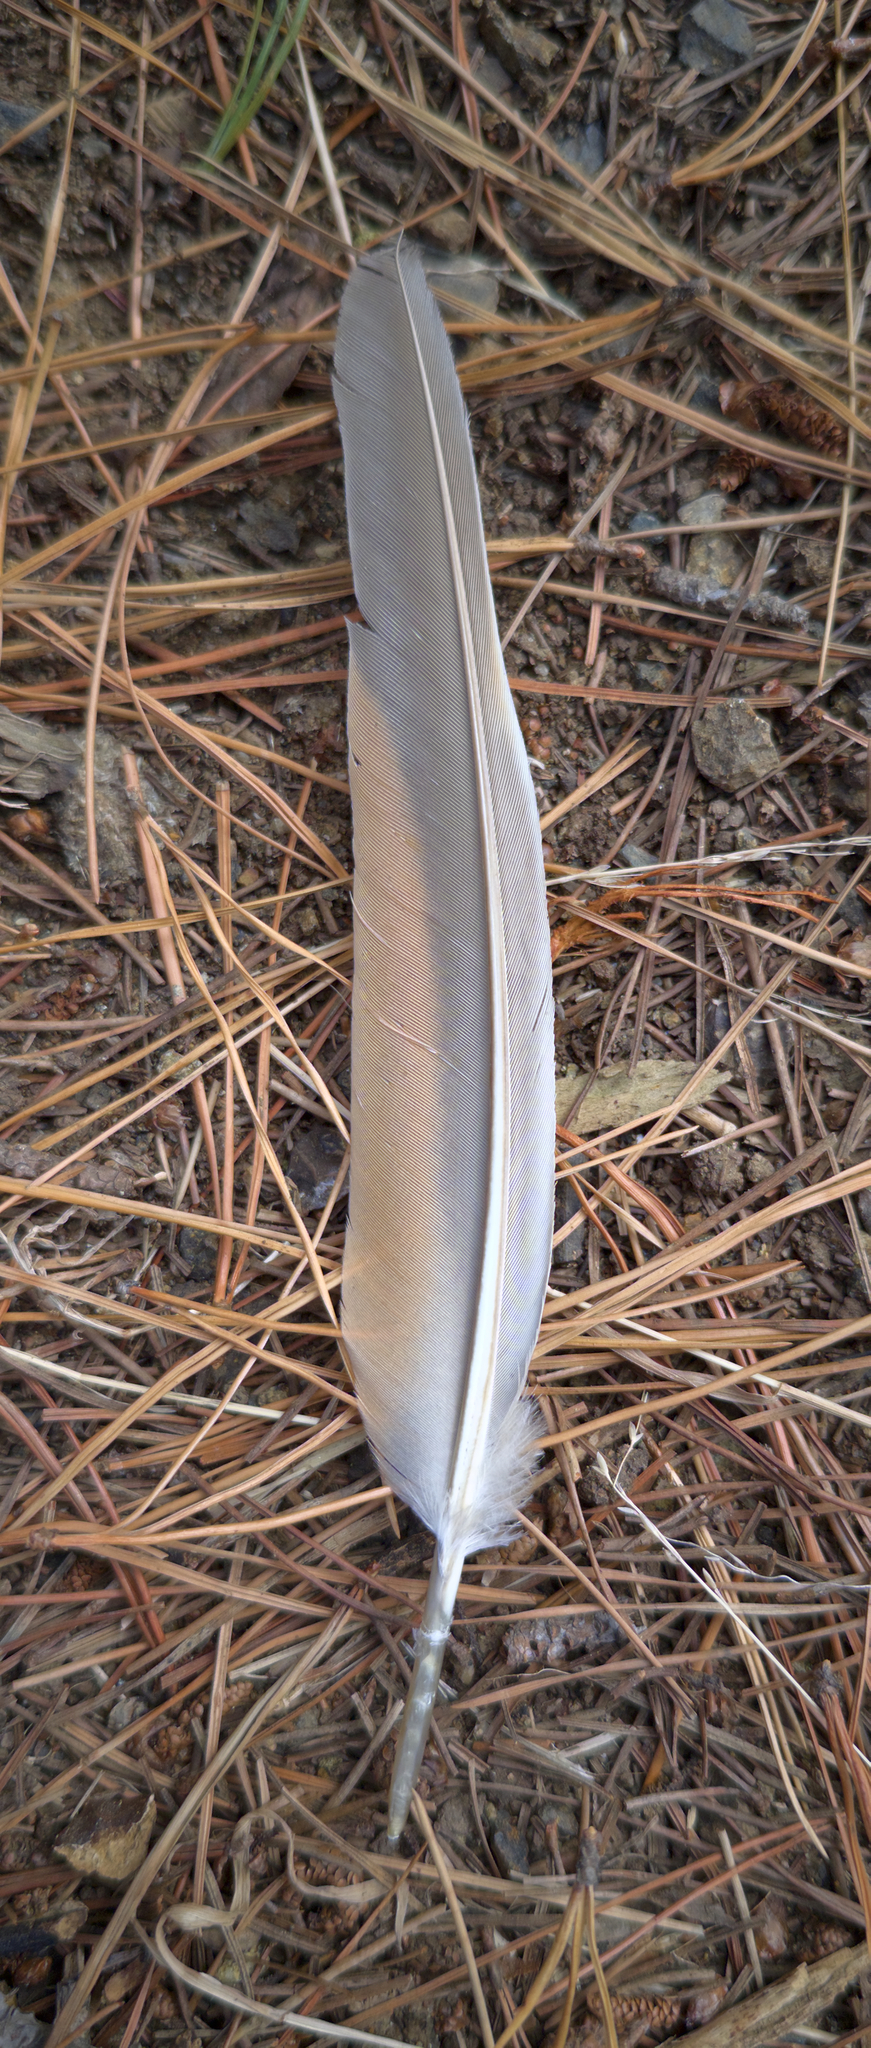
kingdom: Animalia
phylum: Chordata
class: Aves
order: Columbiformes
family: Columbidae
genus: Phaps
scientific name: Phaps chalcoptera
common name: Common bronzewing
